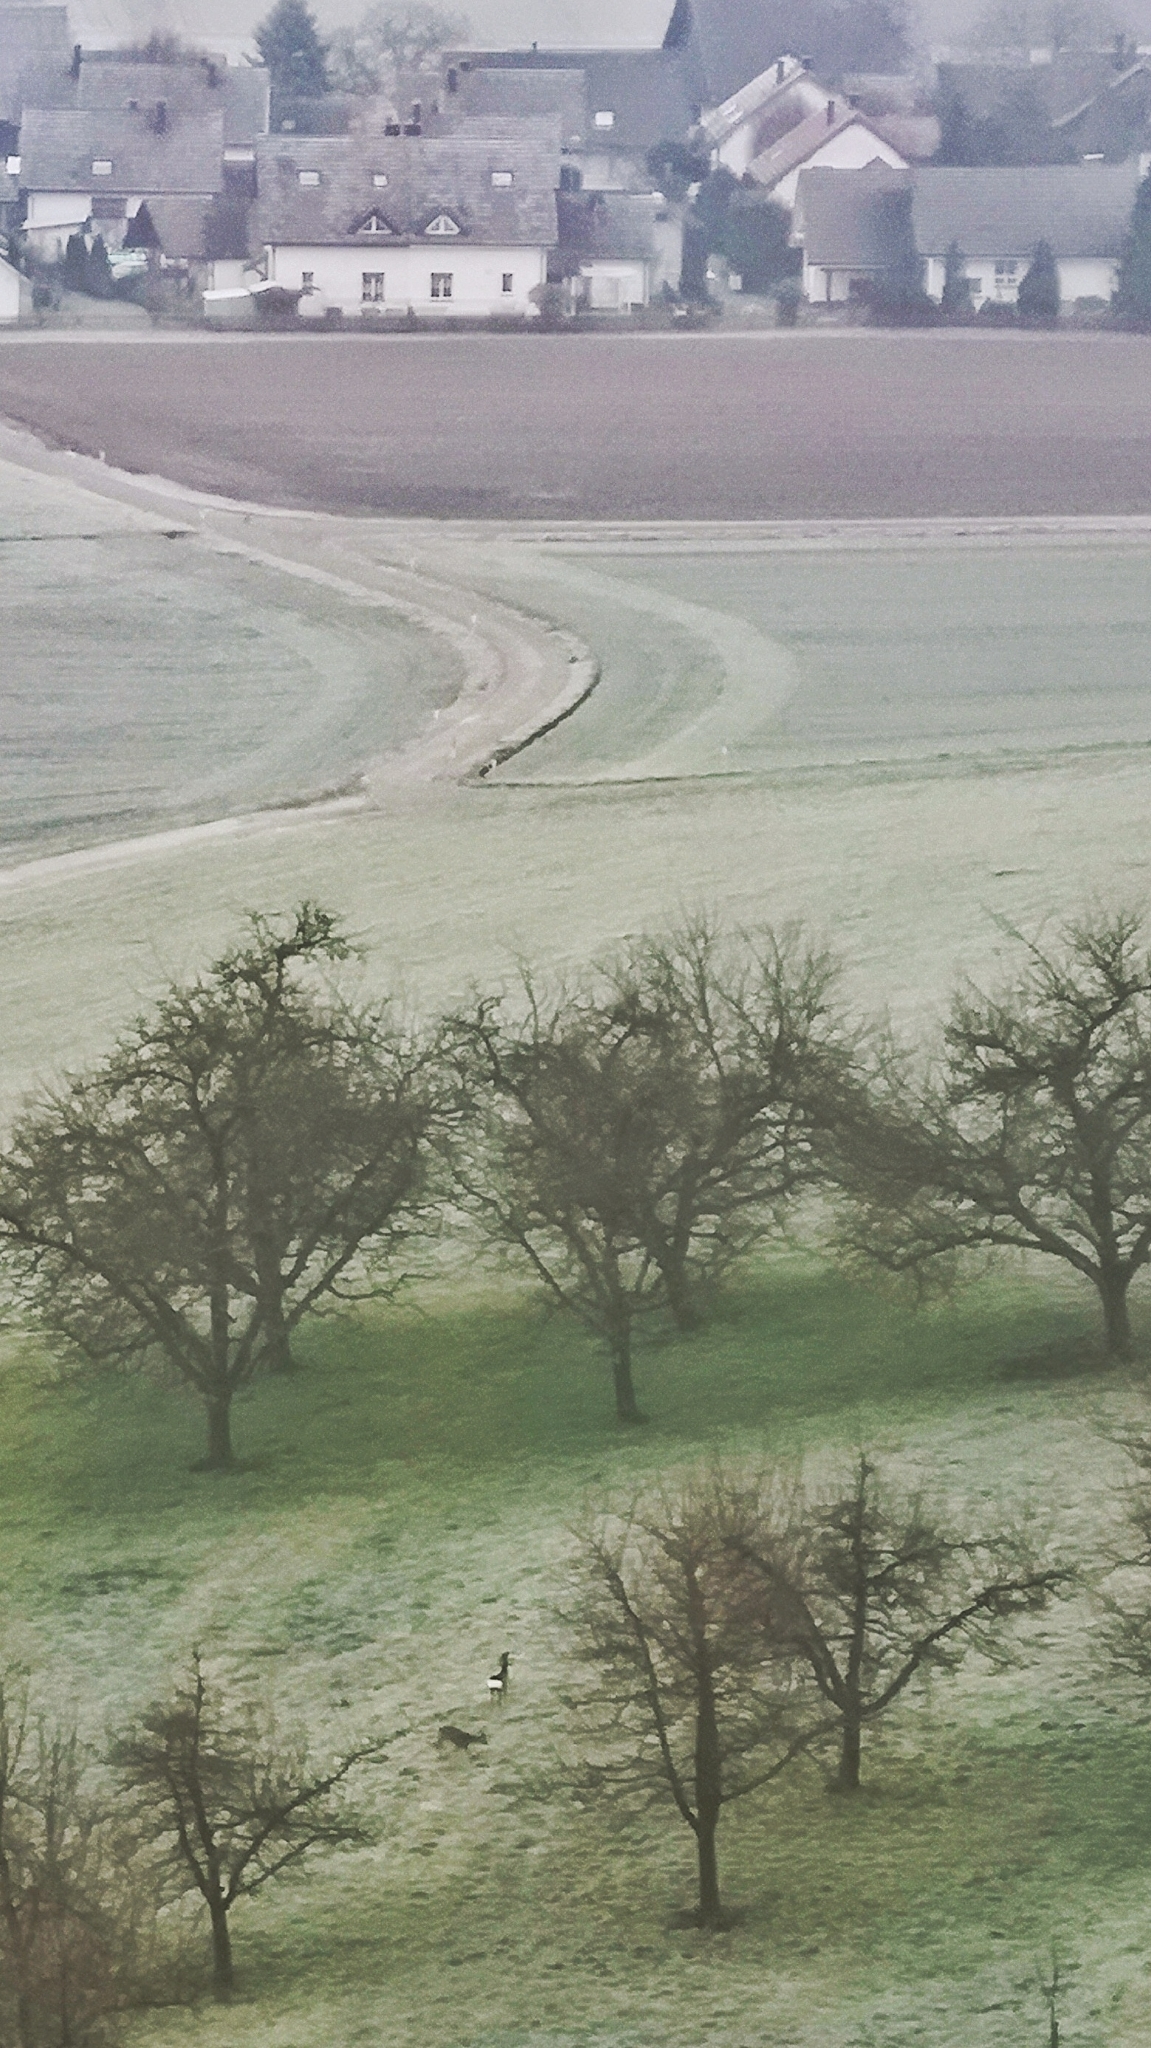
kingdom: Animalia
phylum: Chordata
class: Mammalia
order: Artiodactyla
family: Cervidae
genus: Capreolus
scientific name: Capreolus capreolus
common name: Western roe deer
